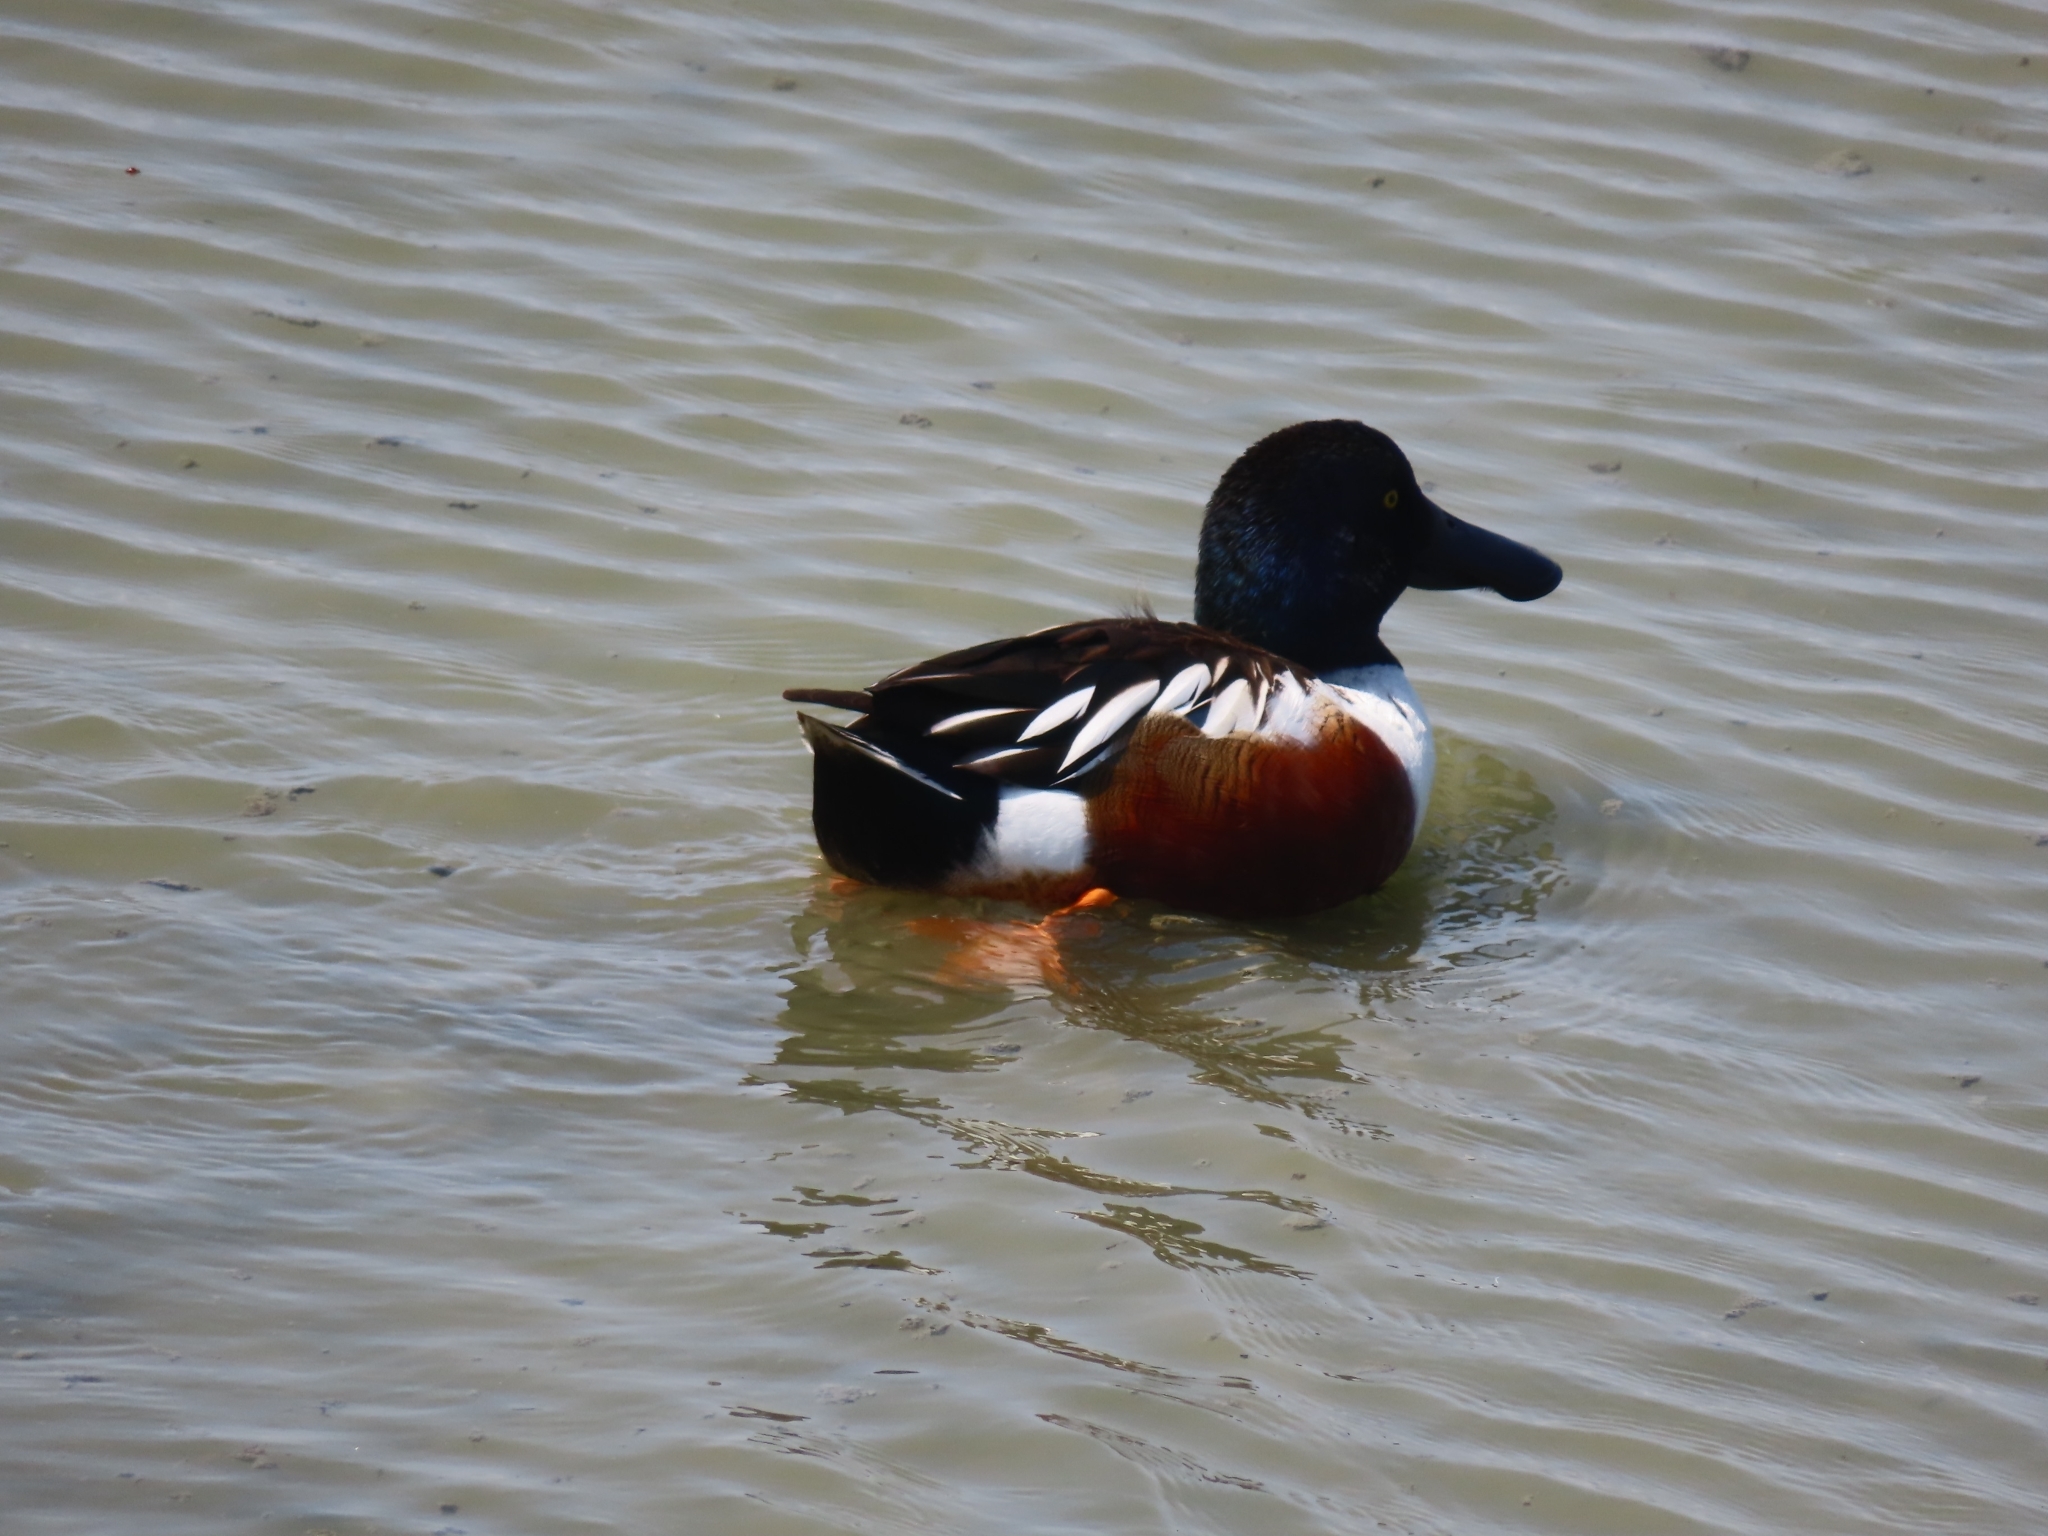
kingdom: Animalia
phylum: Chordata
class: Aves
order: Anseriformes
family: Anatidae
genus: Spatula
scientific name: Spatula clypeata
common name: Northern shoveler
